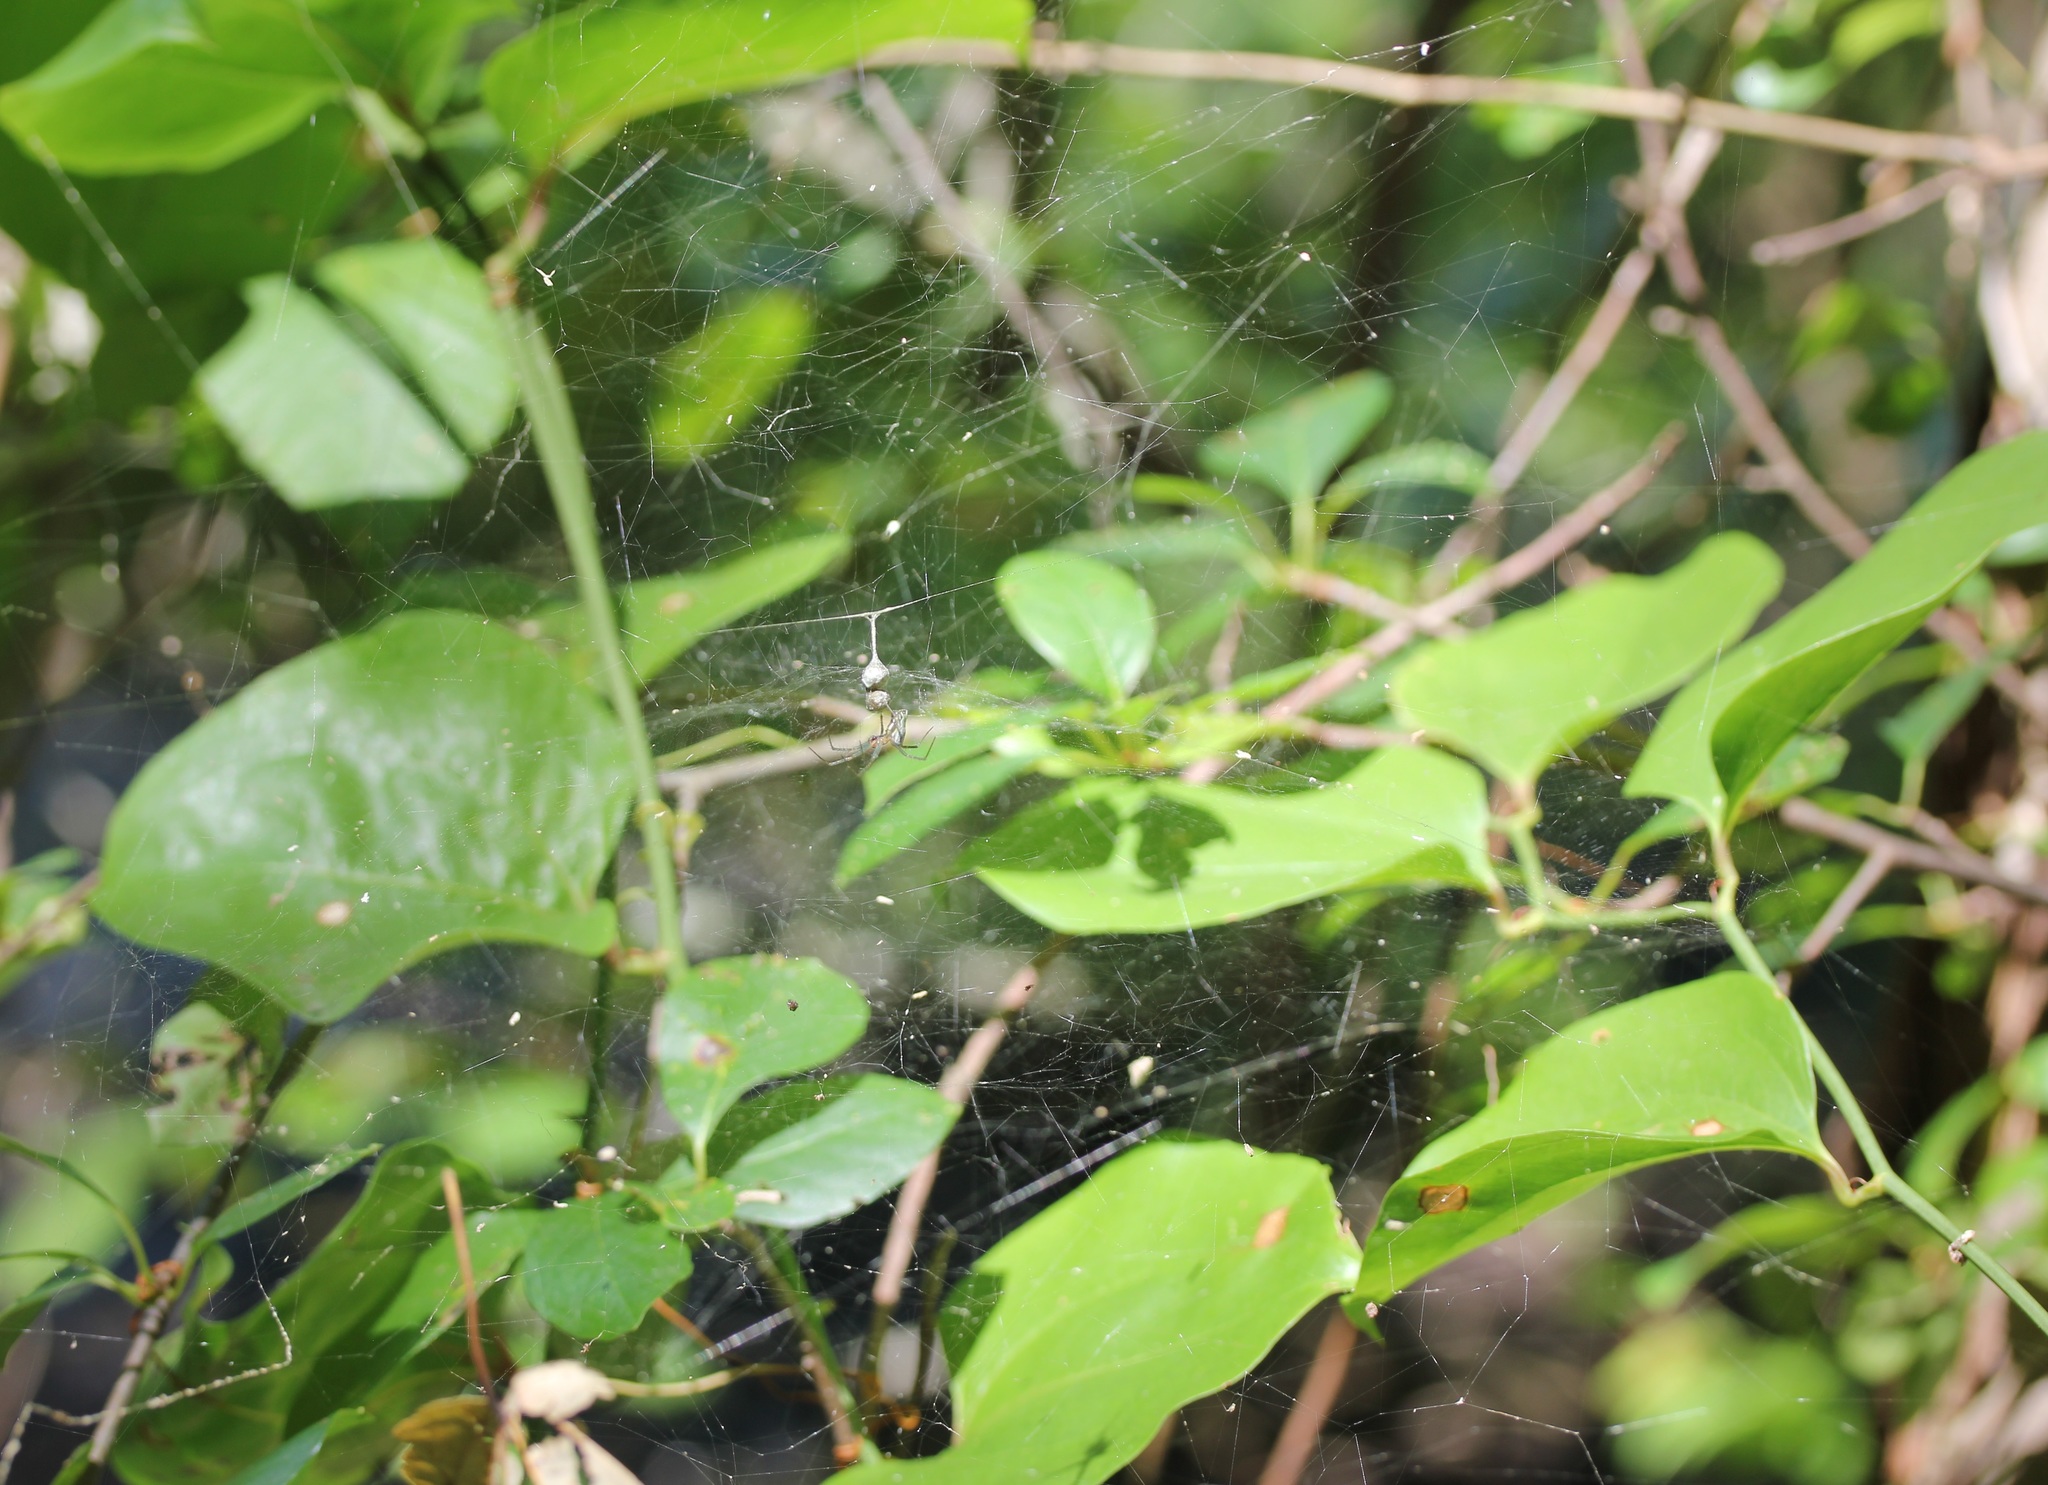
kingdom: Animalia
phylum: Arthropoda
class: Arachnida
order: Araneae
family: Araneidae
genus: Mecynogea
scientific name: Mecynogea lemniscata
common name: Orb weavers
